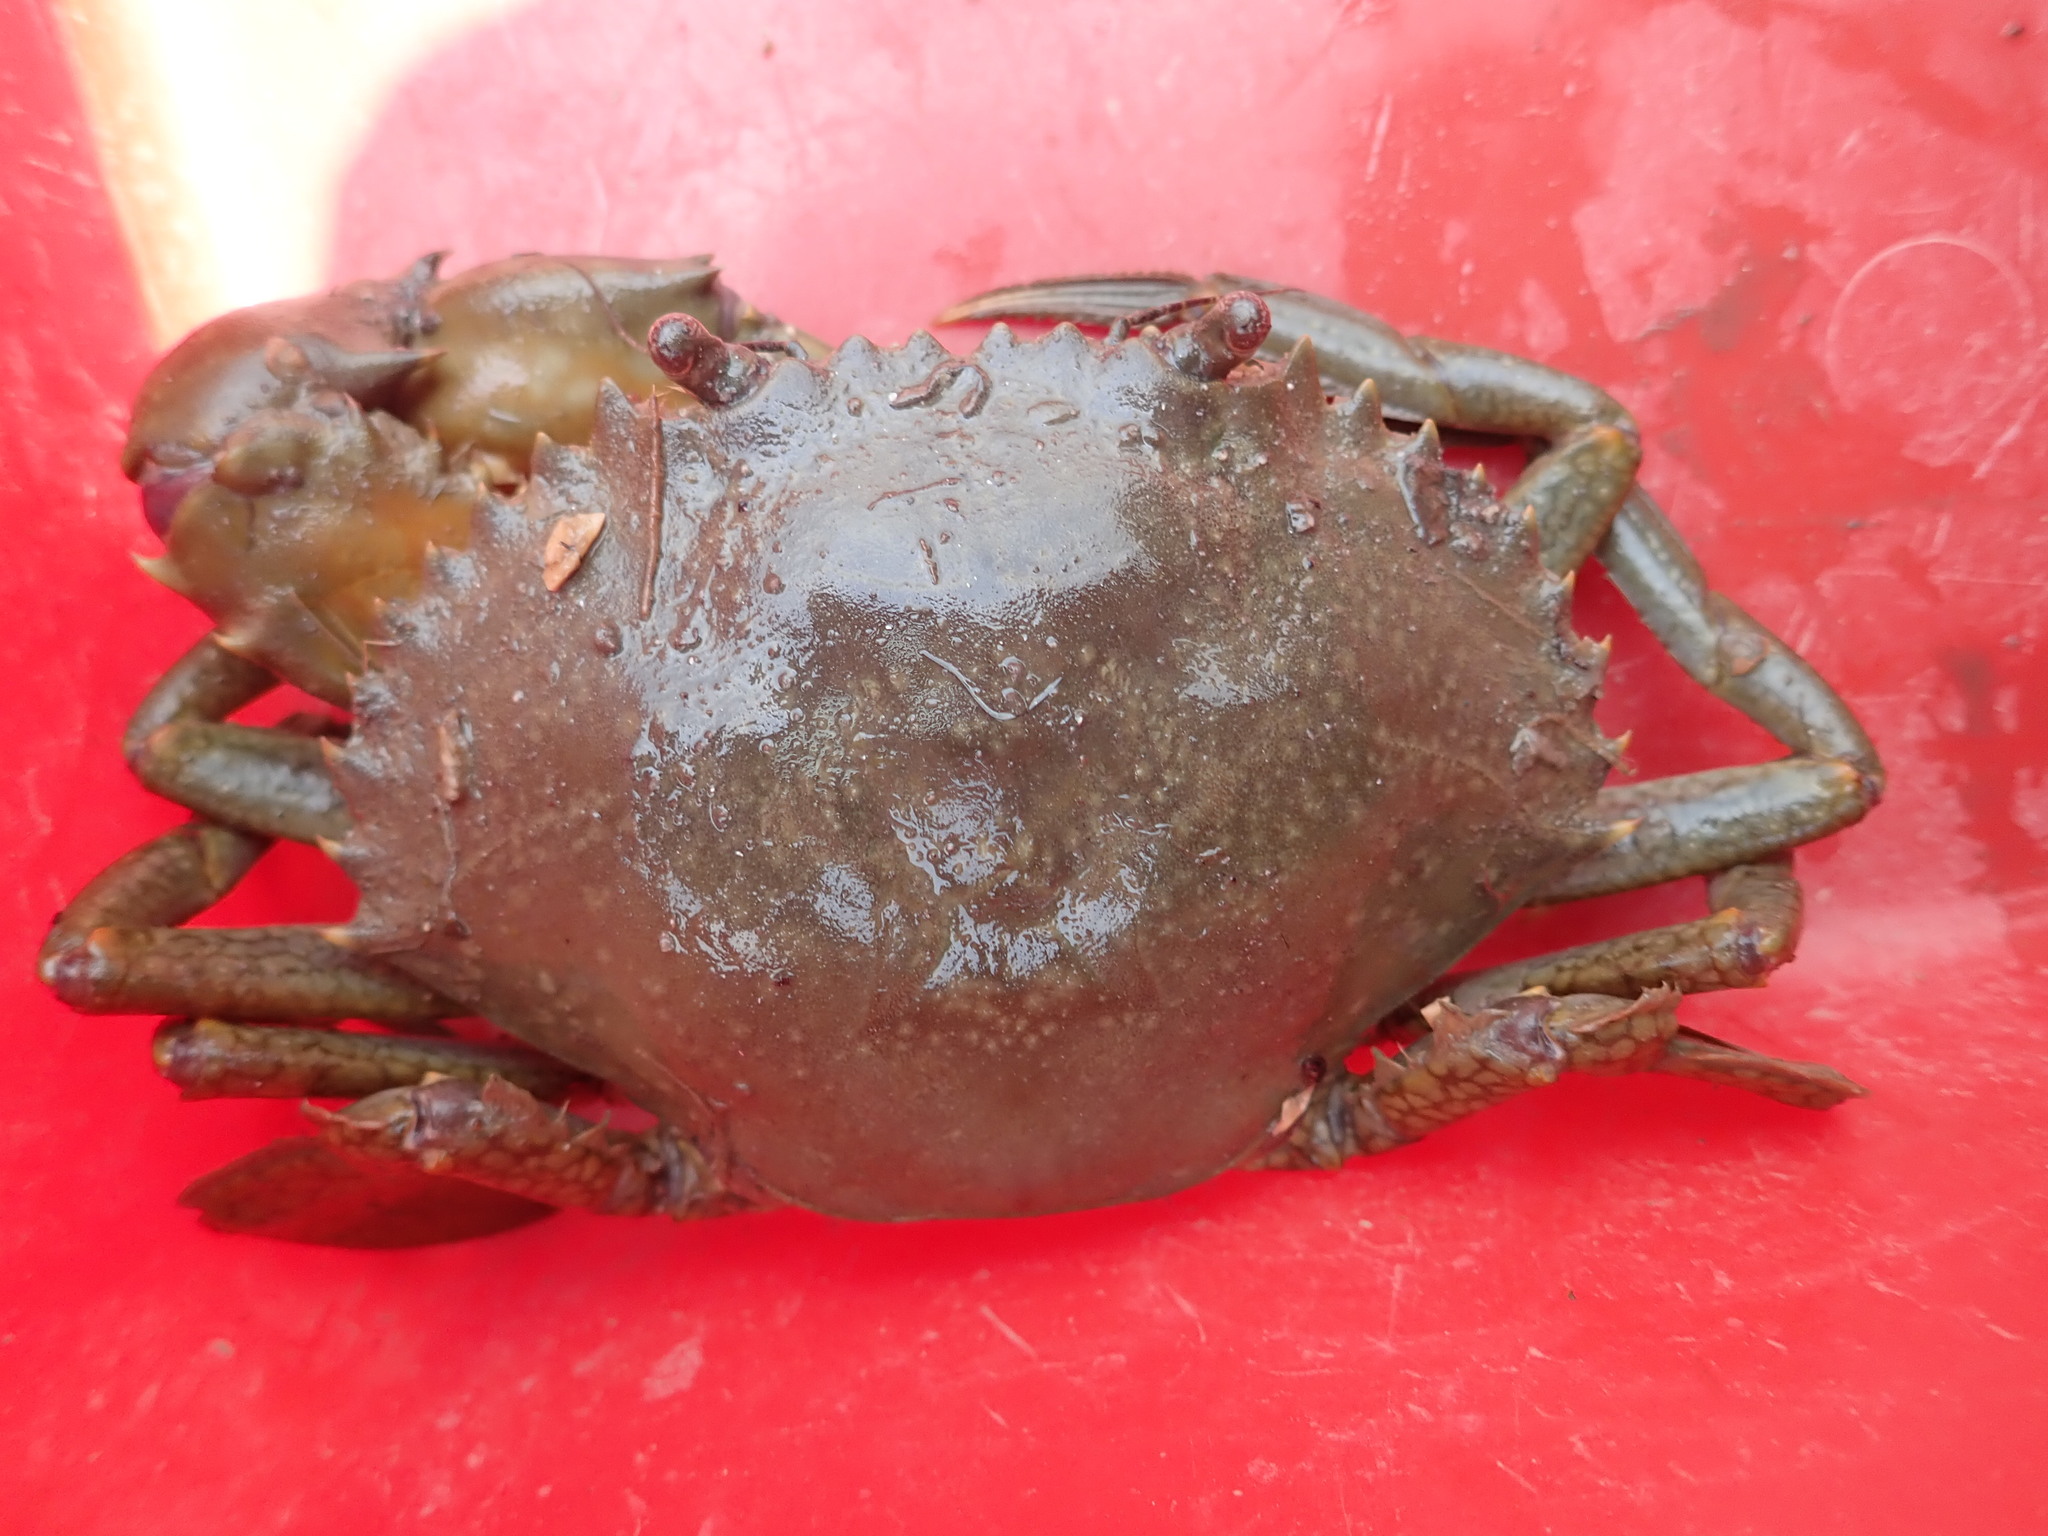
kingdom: Animalia
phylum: Arthropoda
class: Malacostraca
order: Decapoda
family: Portunidae
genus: Scylla
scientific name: Scylla serrata
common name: Giant mud crab
